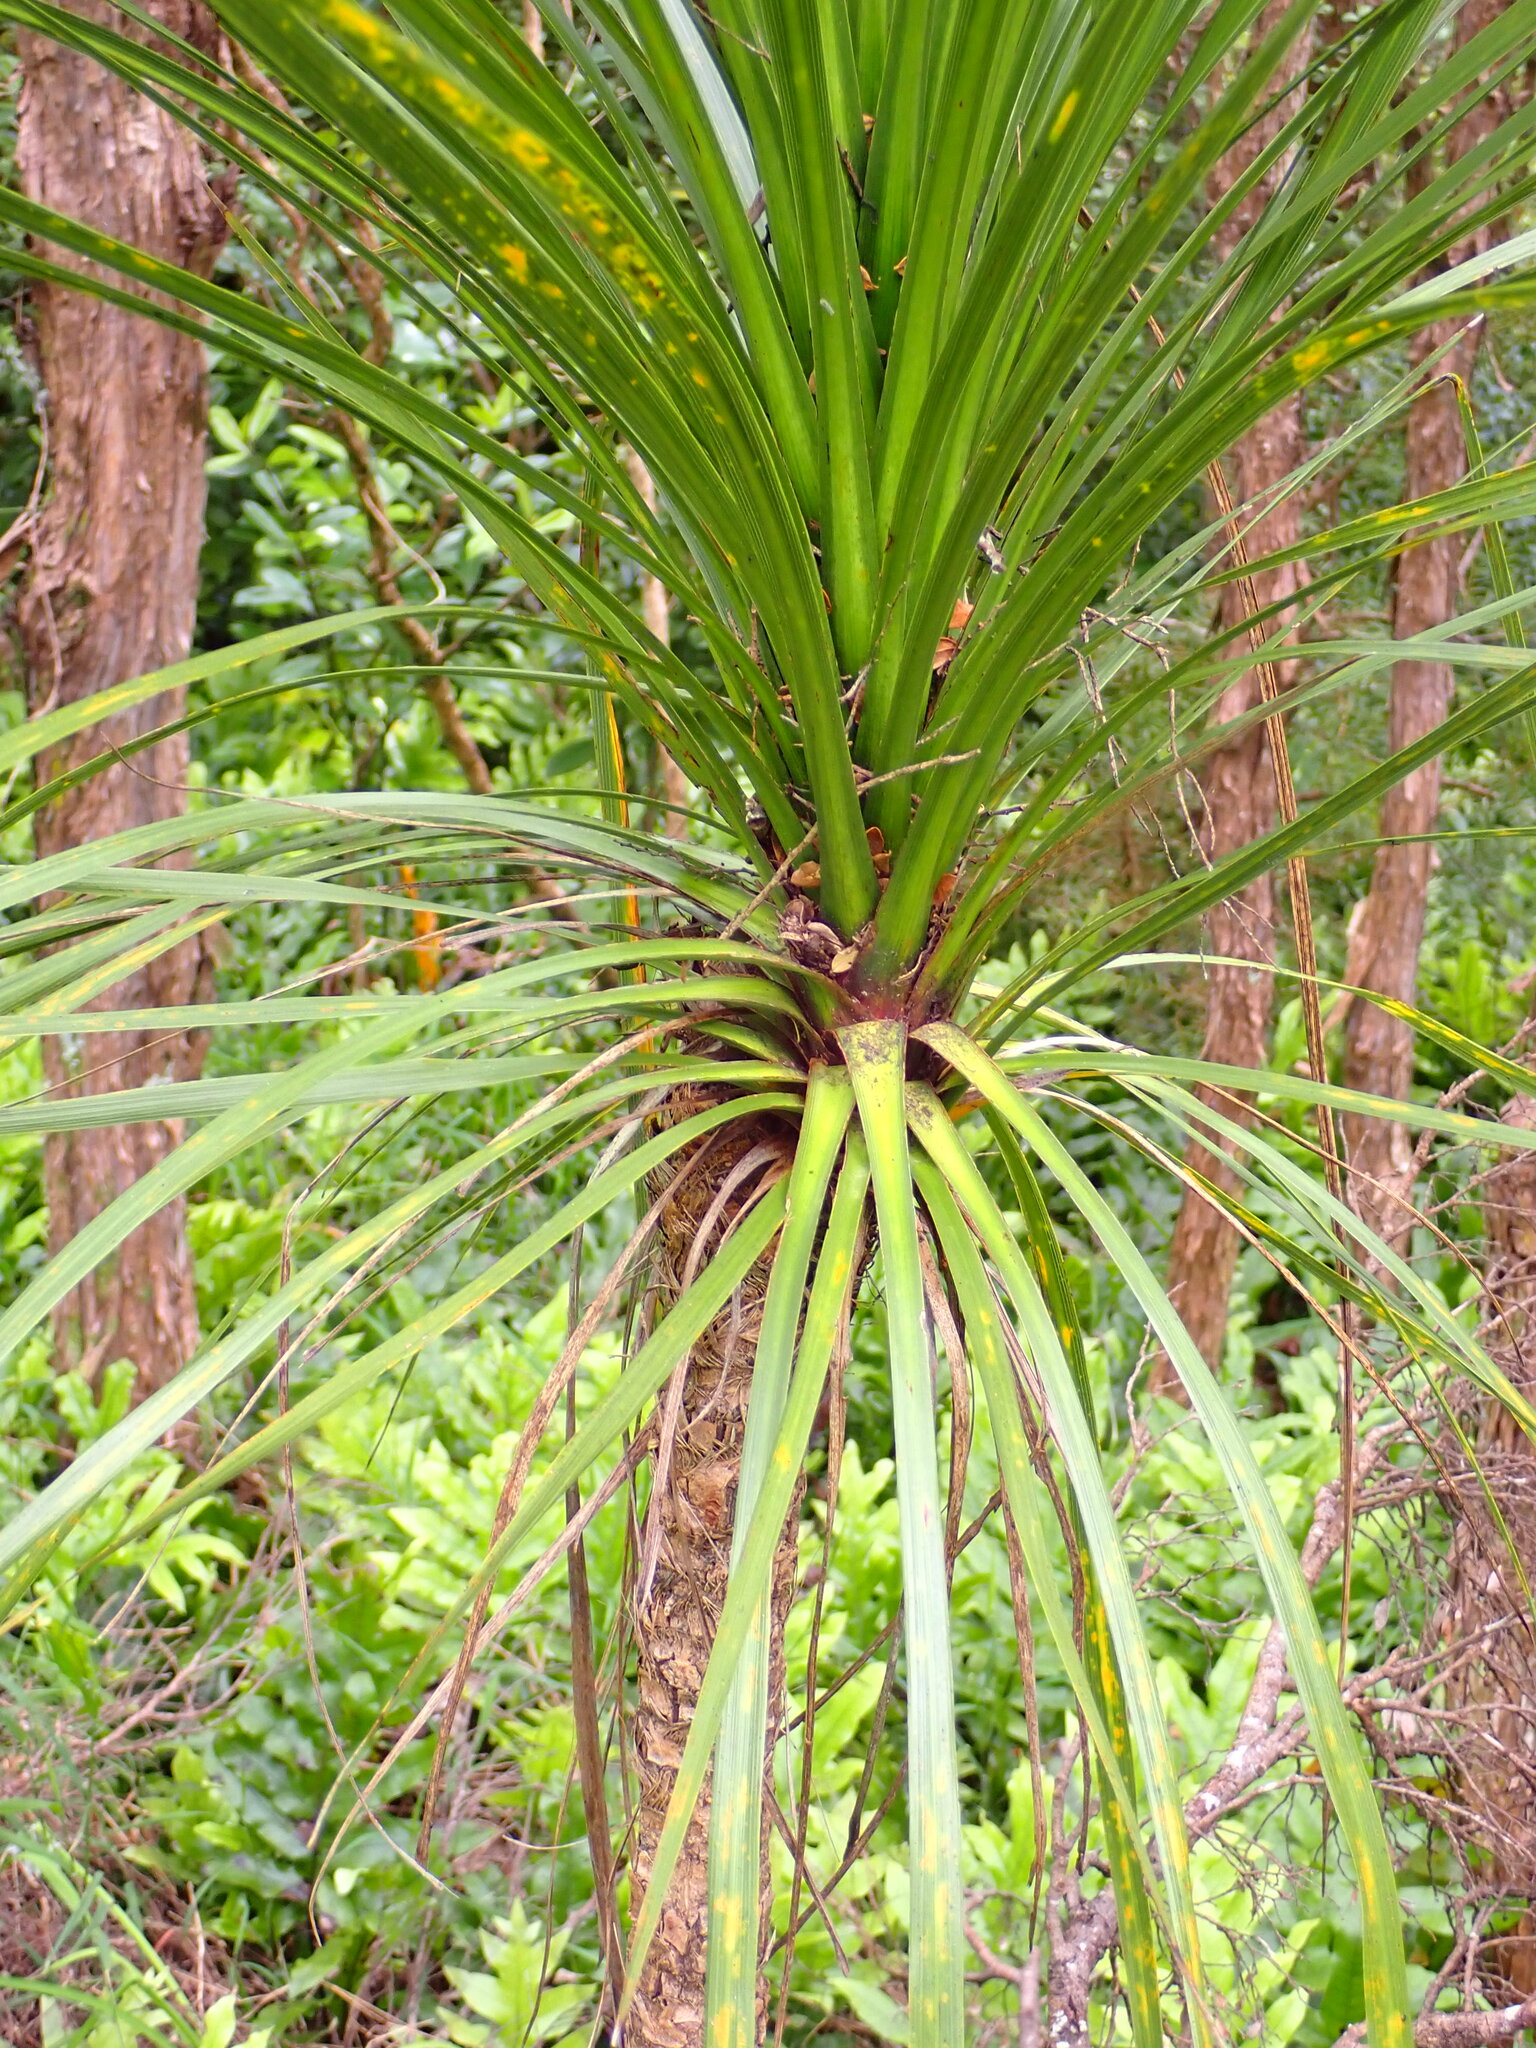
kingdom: Plantae
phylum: Tracheophyta
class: Liliopsida
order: Asparagales
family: Asparagaceae
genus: Cordyline
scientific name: Cordyline australis
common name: Cabbage-palm
